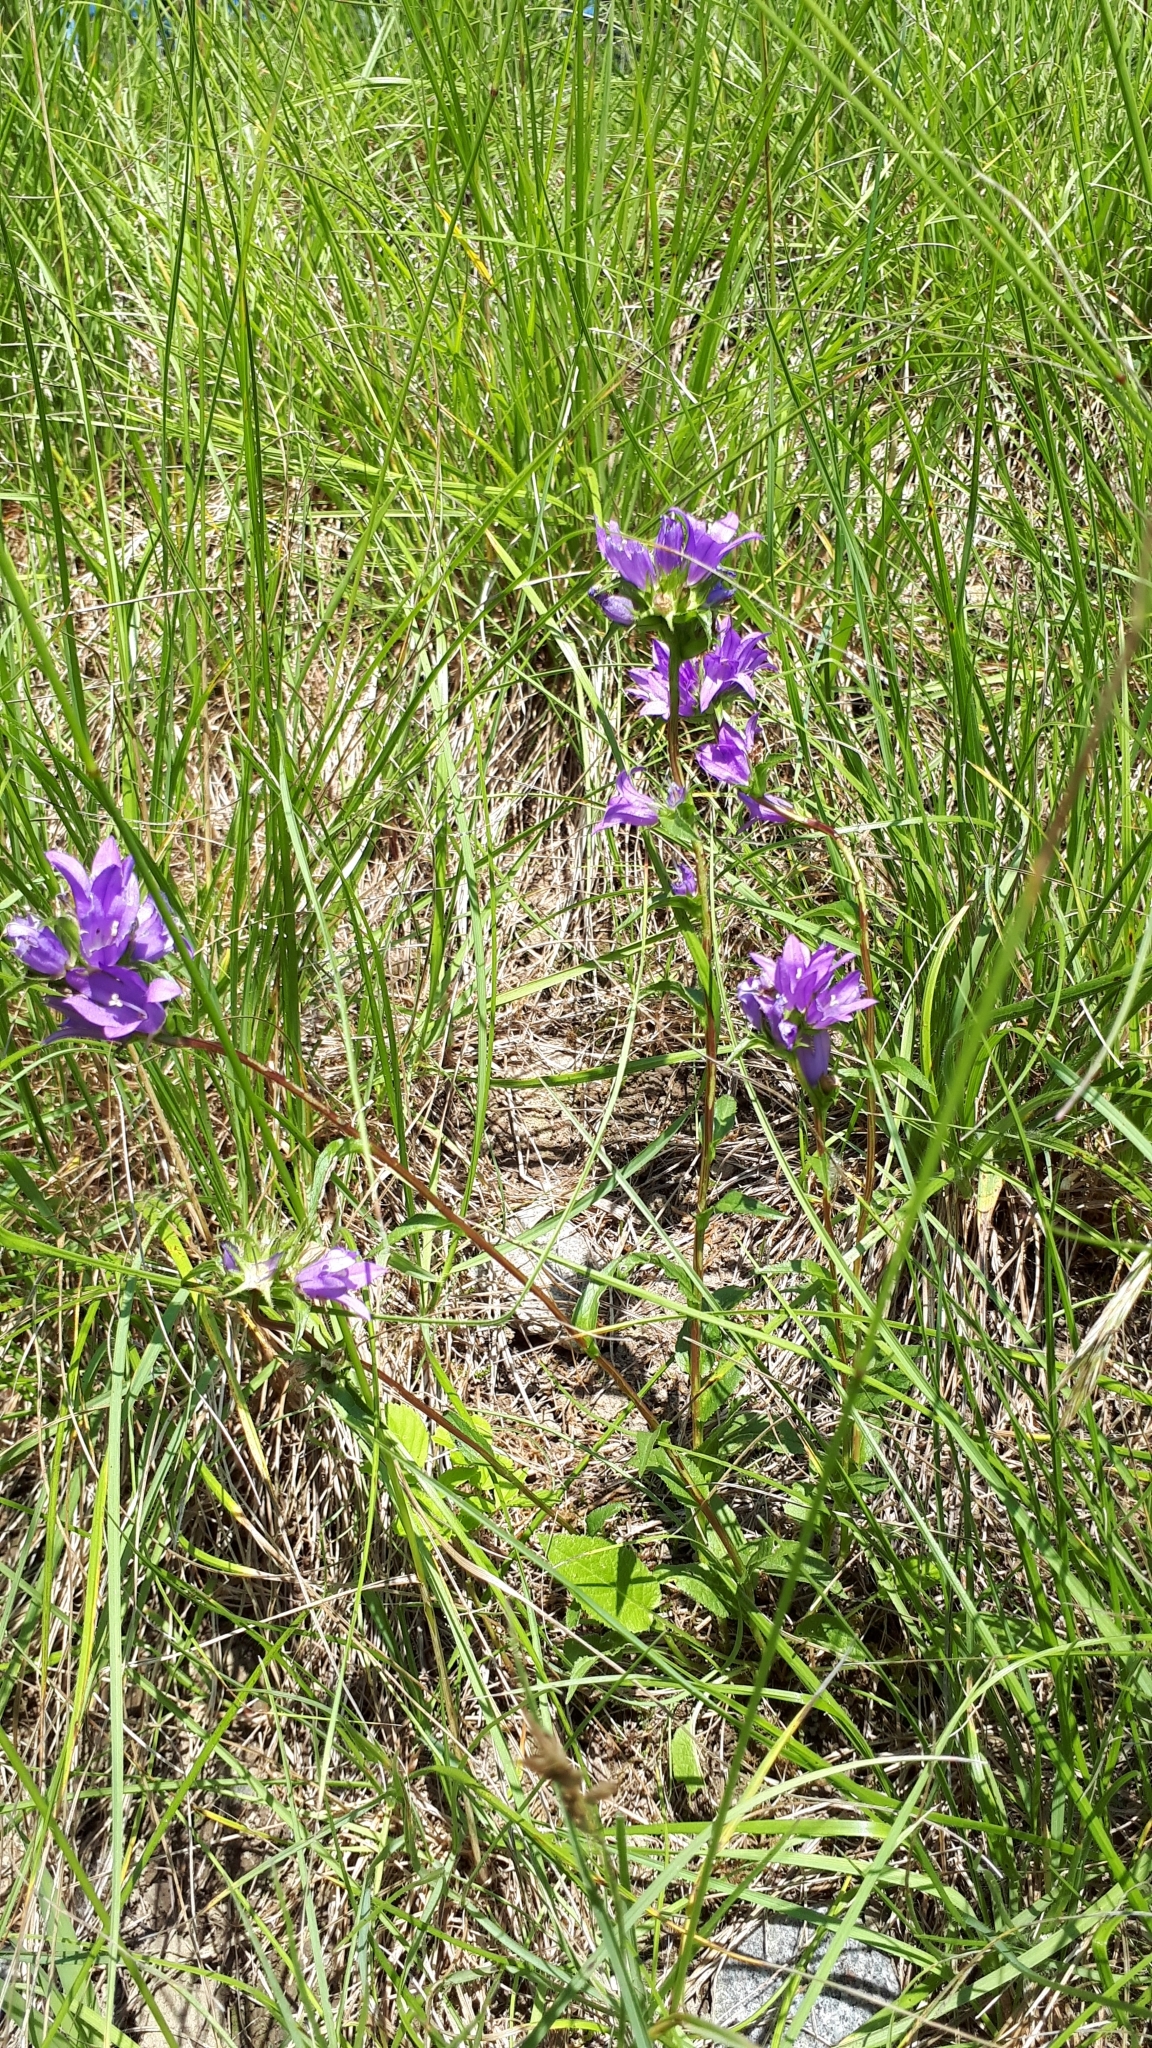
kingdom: Plantae
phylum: Tracheophyta
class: Magnoliopsida
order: Asterales
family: Campanulaceae
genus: Campanula
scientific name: Campanula glomerata
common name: Clustered bellflower
